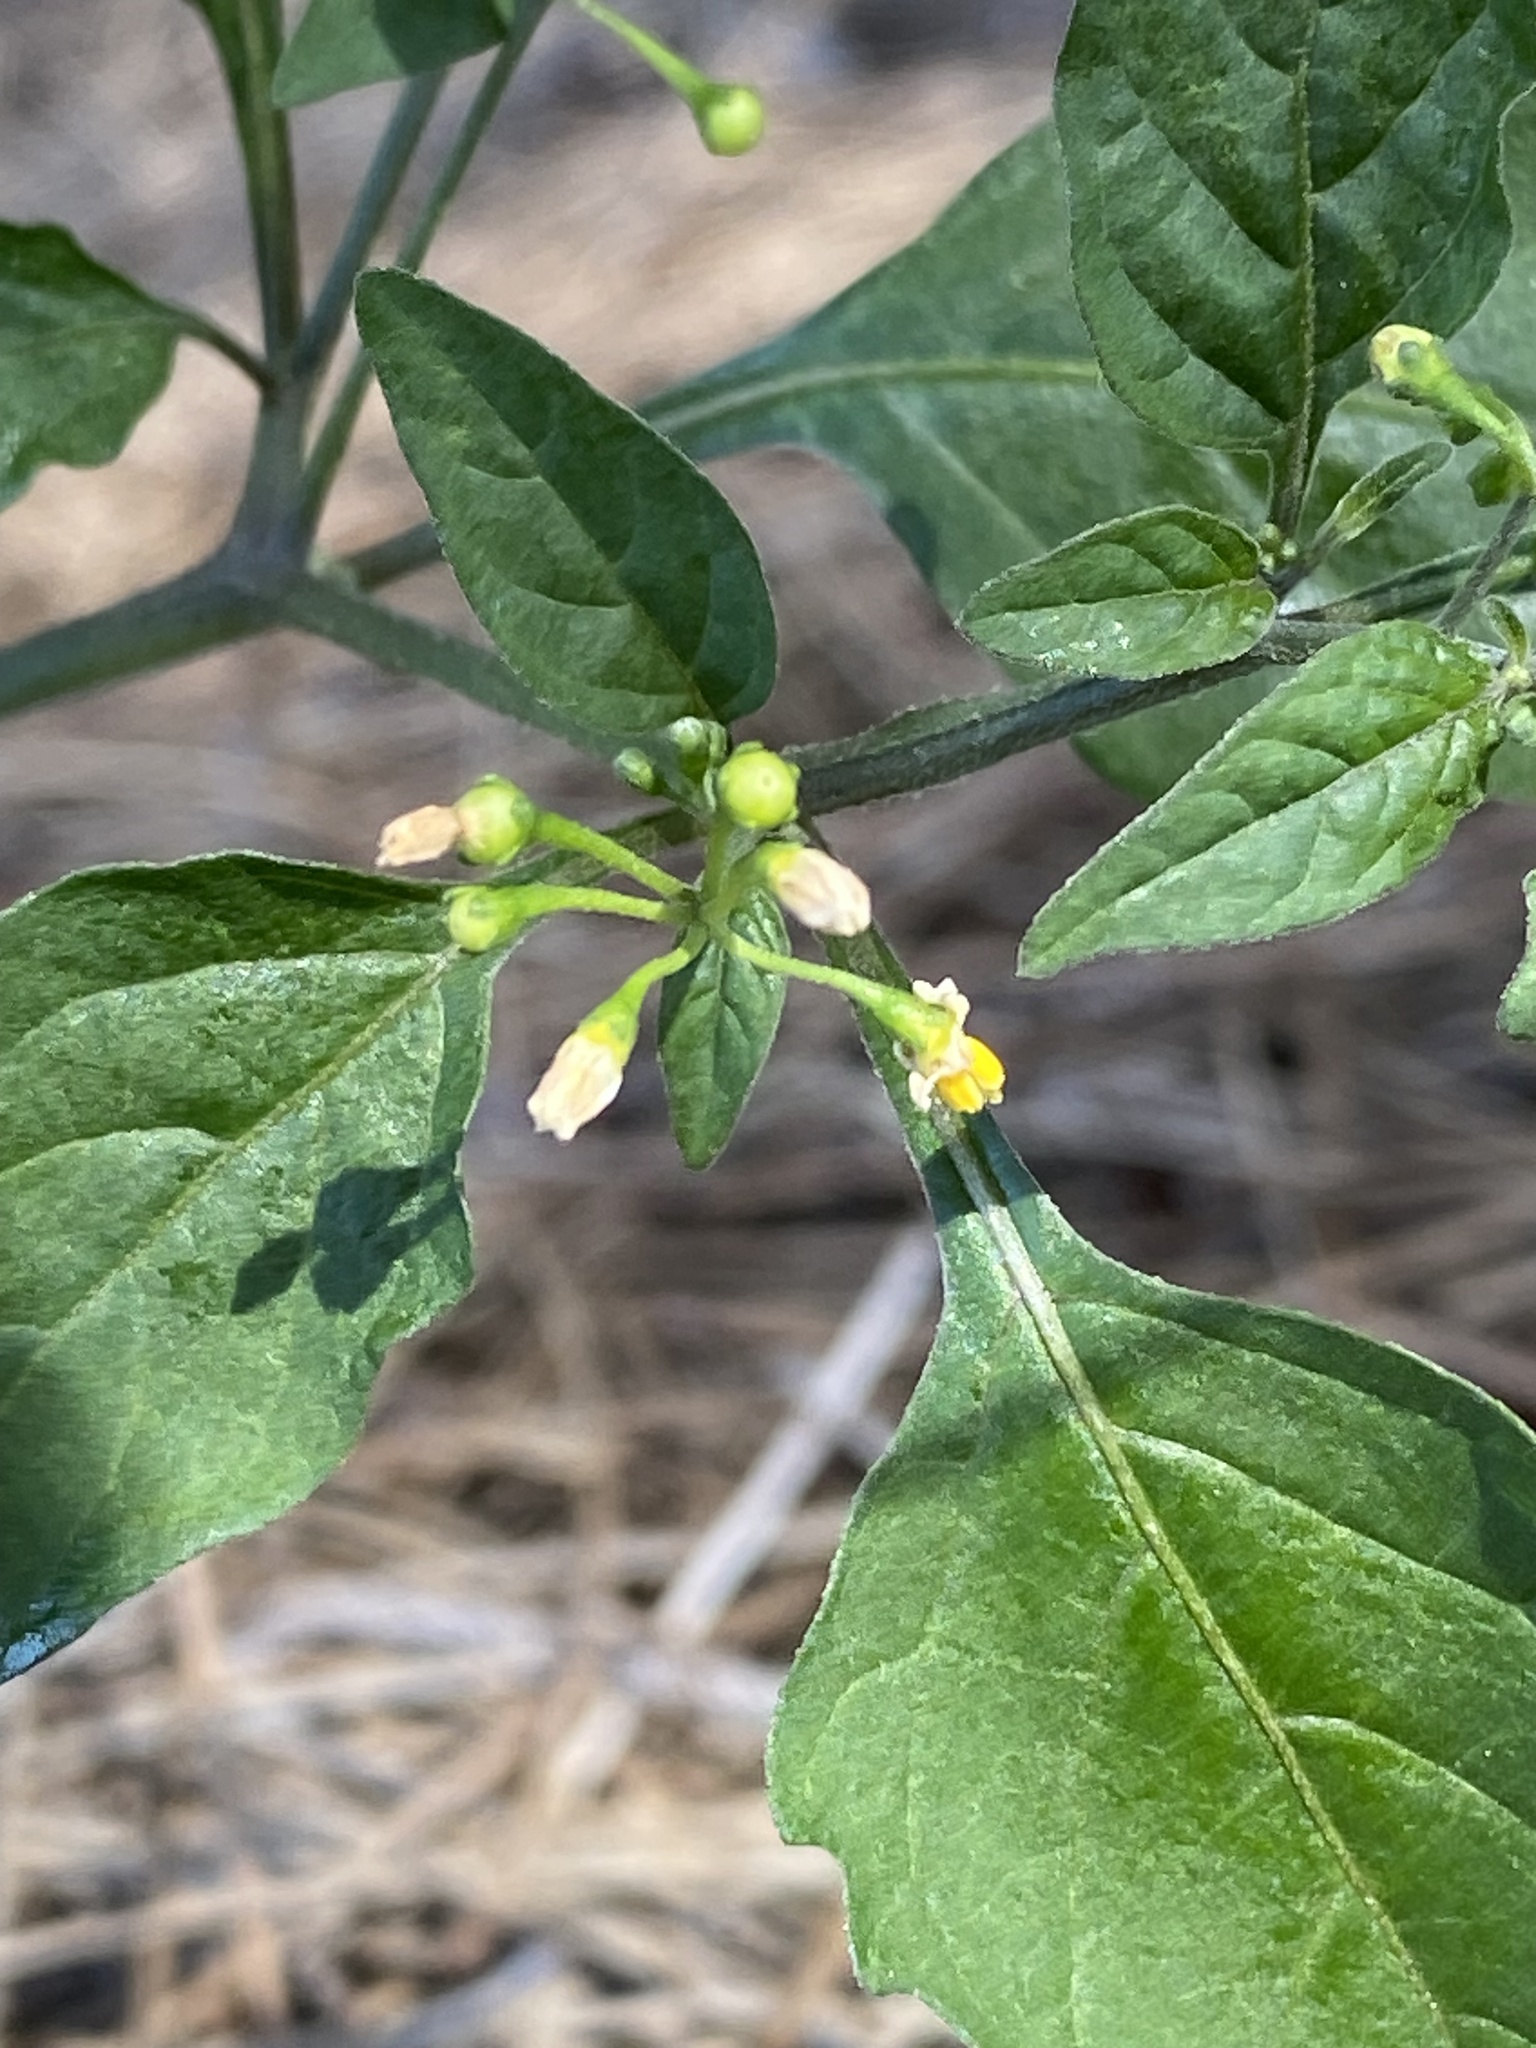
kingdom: Plantae
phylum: Tracheophyta
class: Magnoliopsida
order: Solanales
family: Solanaceae
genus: Solanum
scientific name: Solanum americanum
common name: American black nightshade
